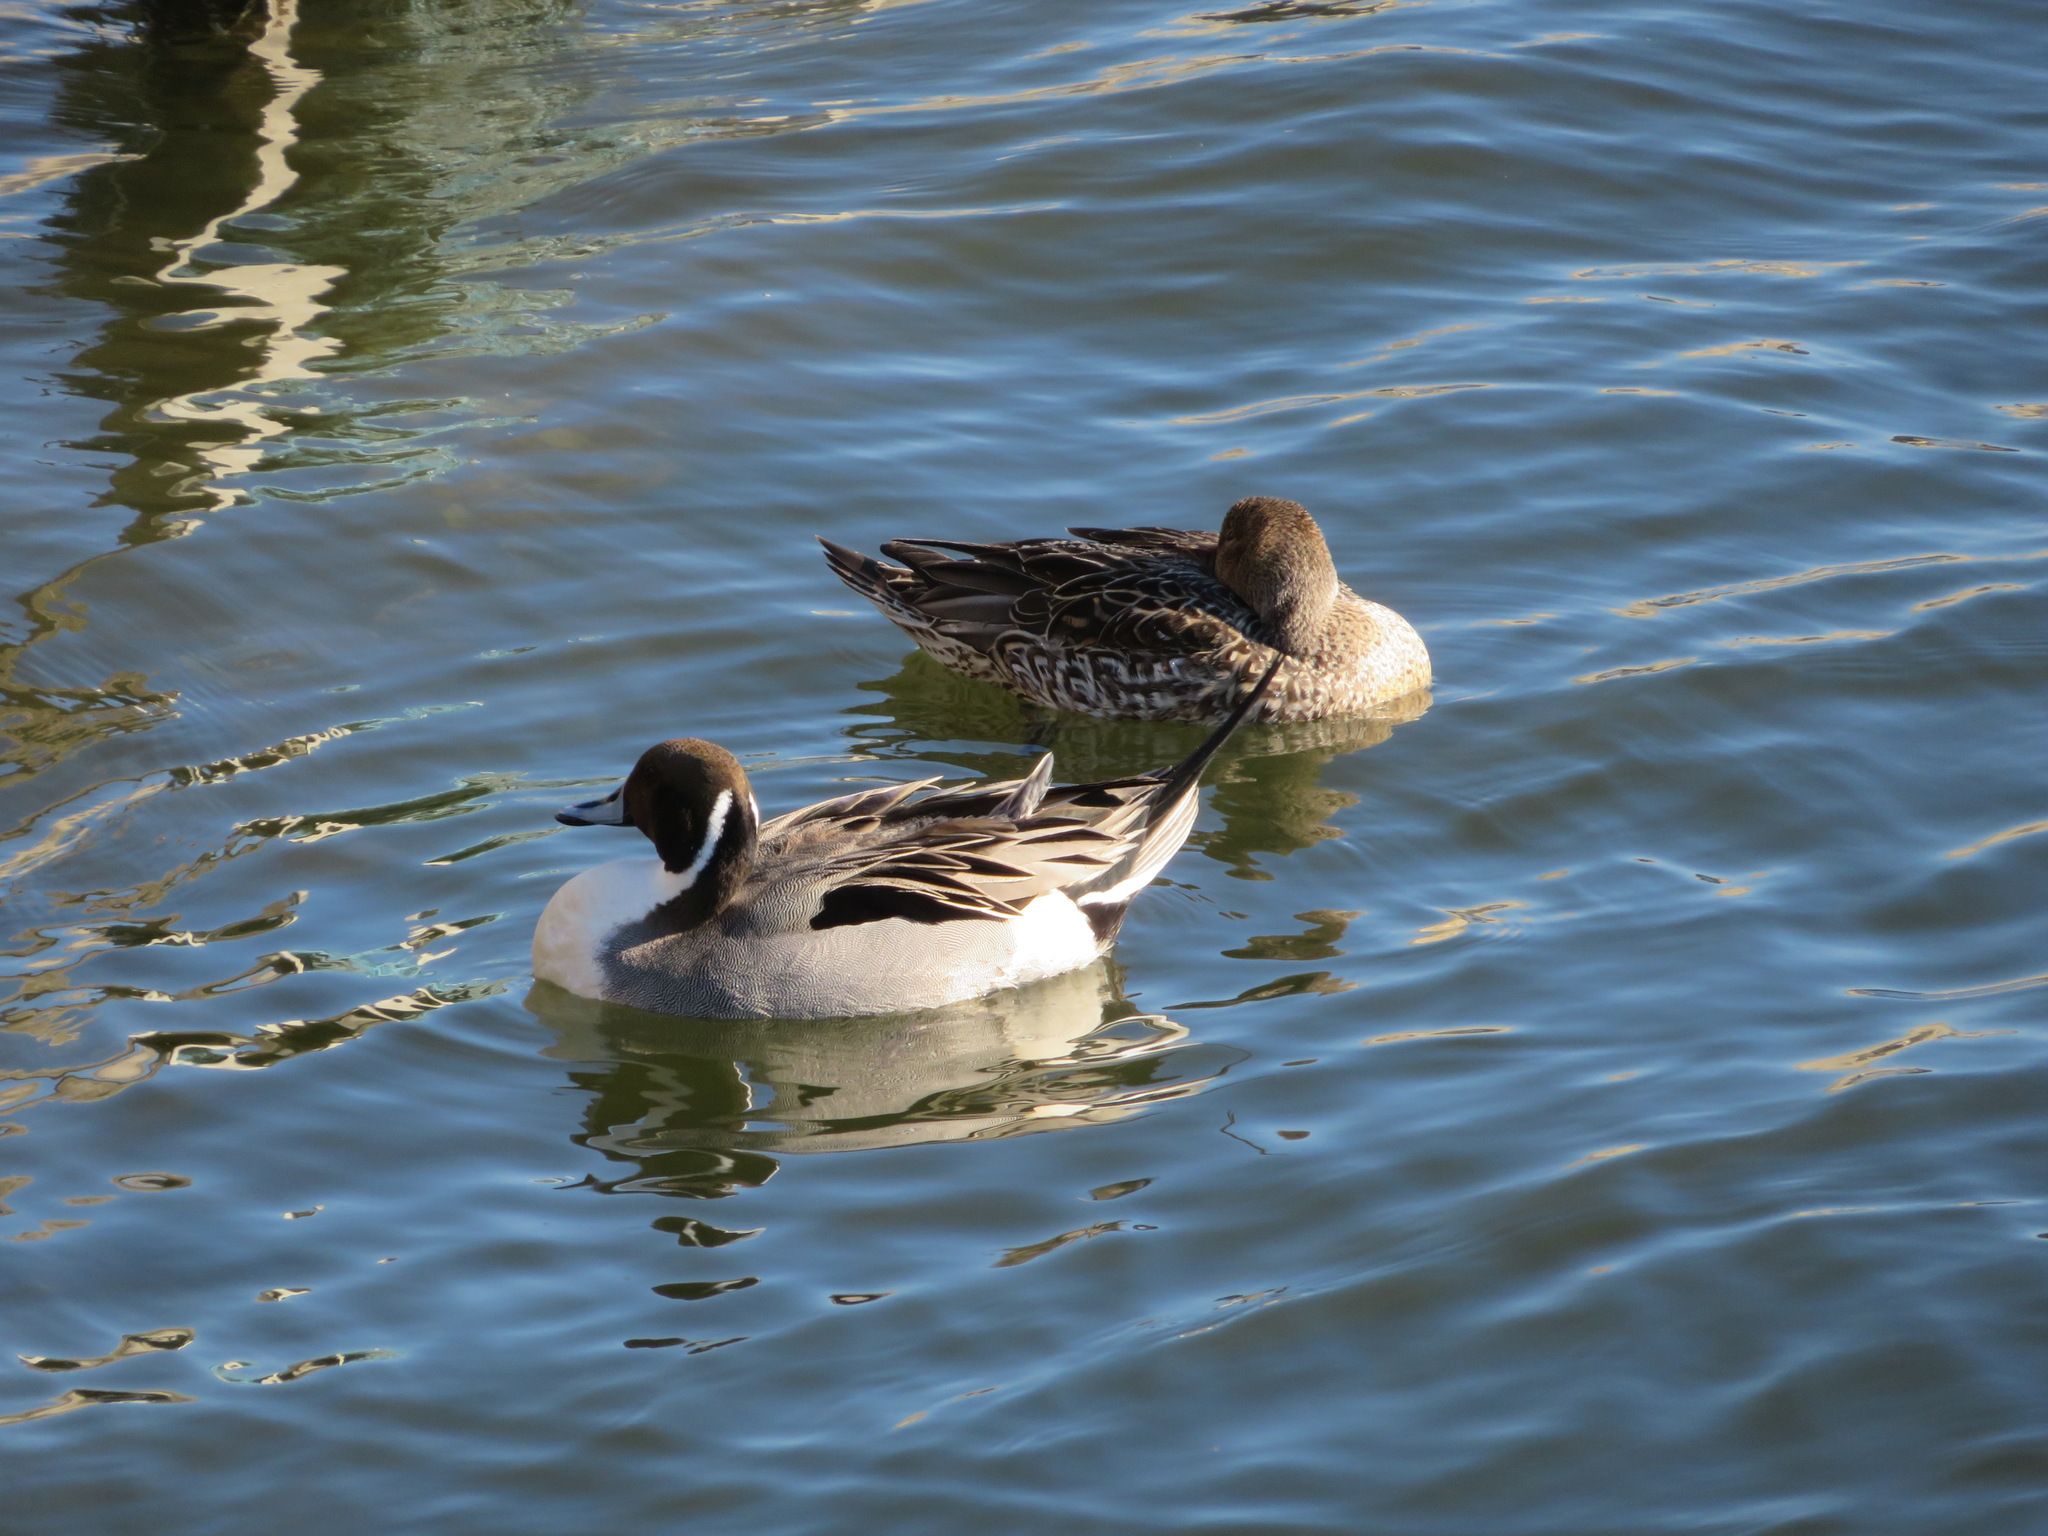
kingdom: Animalia
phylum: Chordata
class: Aves
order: Anseriformes
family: Anatidae
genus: Anas
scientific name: Anas acuta
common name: Northern pintail
